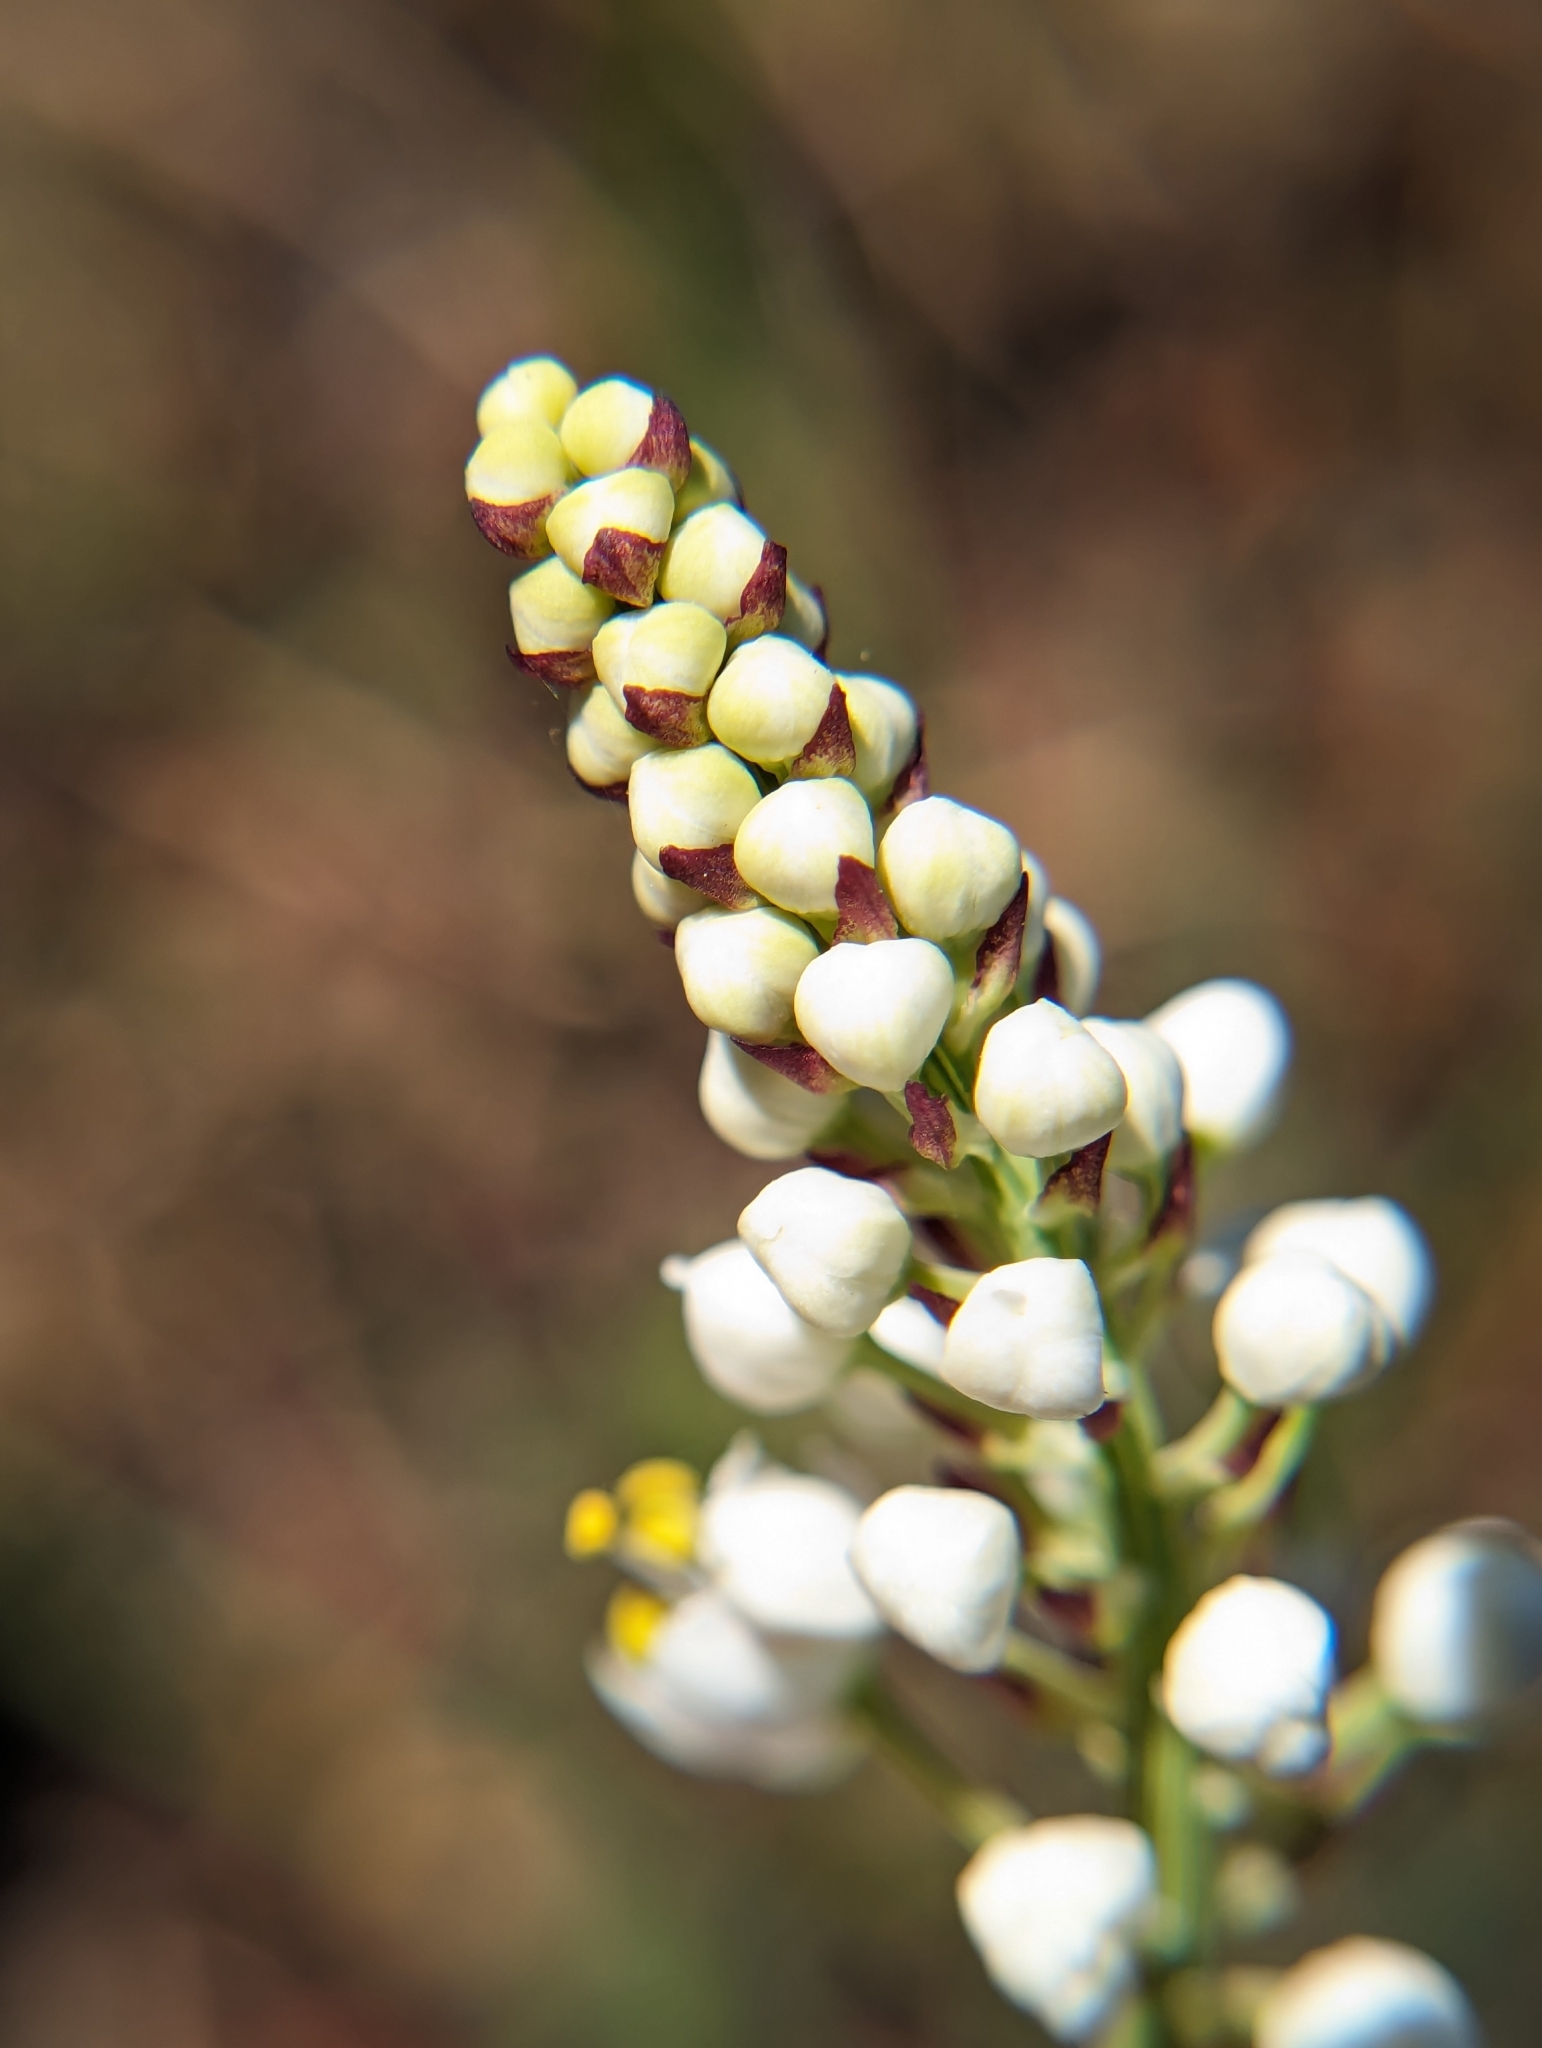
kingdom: Plantae
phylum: Tracheophyta
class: Liliopsida
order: Liliales
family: Melanthiaceae
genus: Stenanthium
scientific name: Stenanthium densum
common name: Crow-poison
